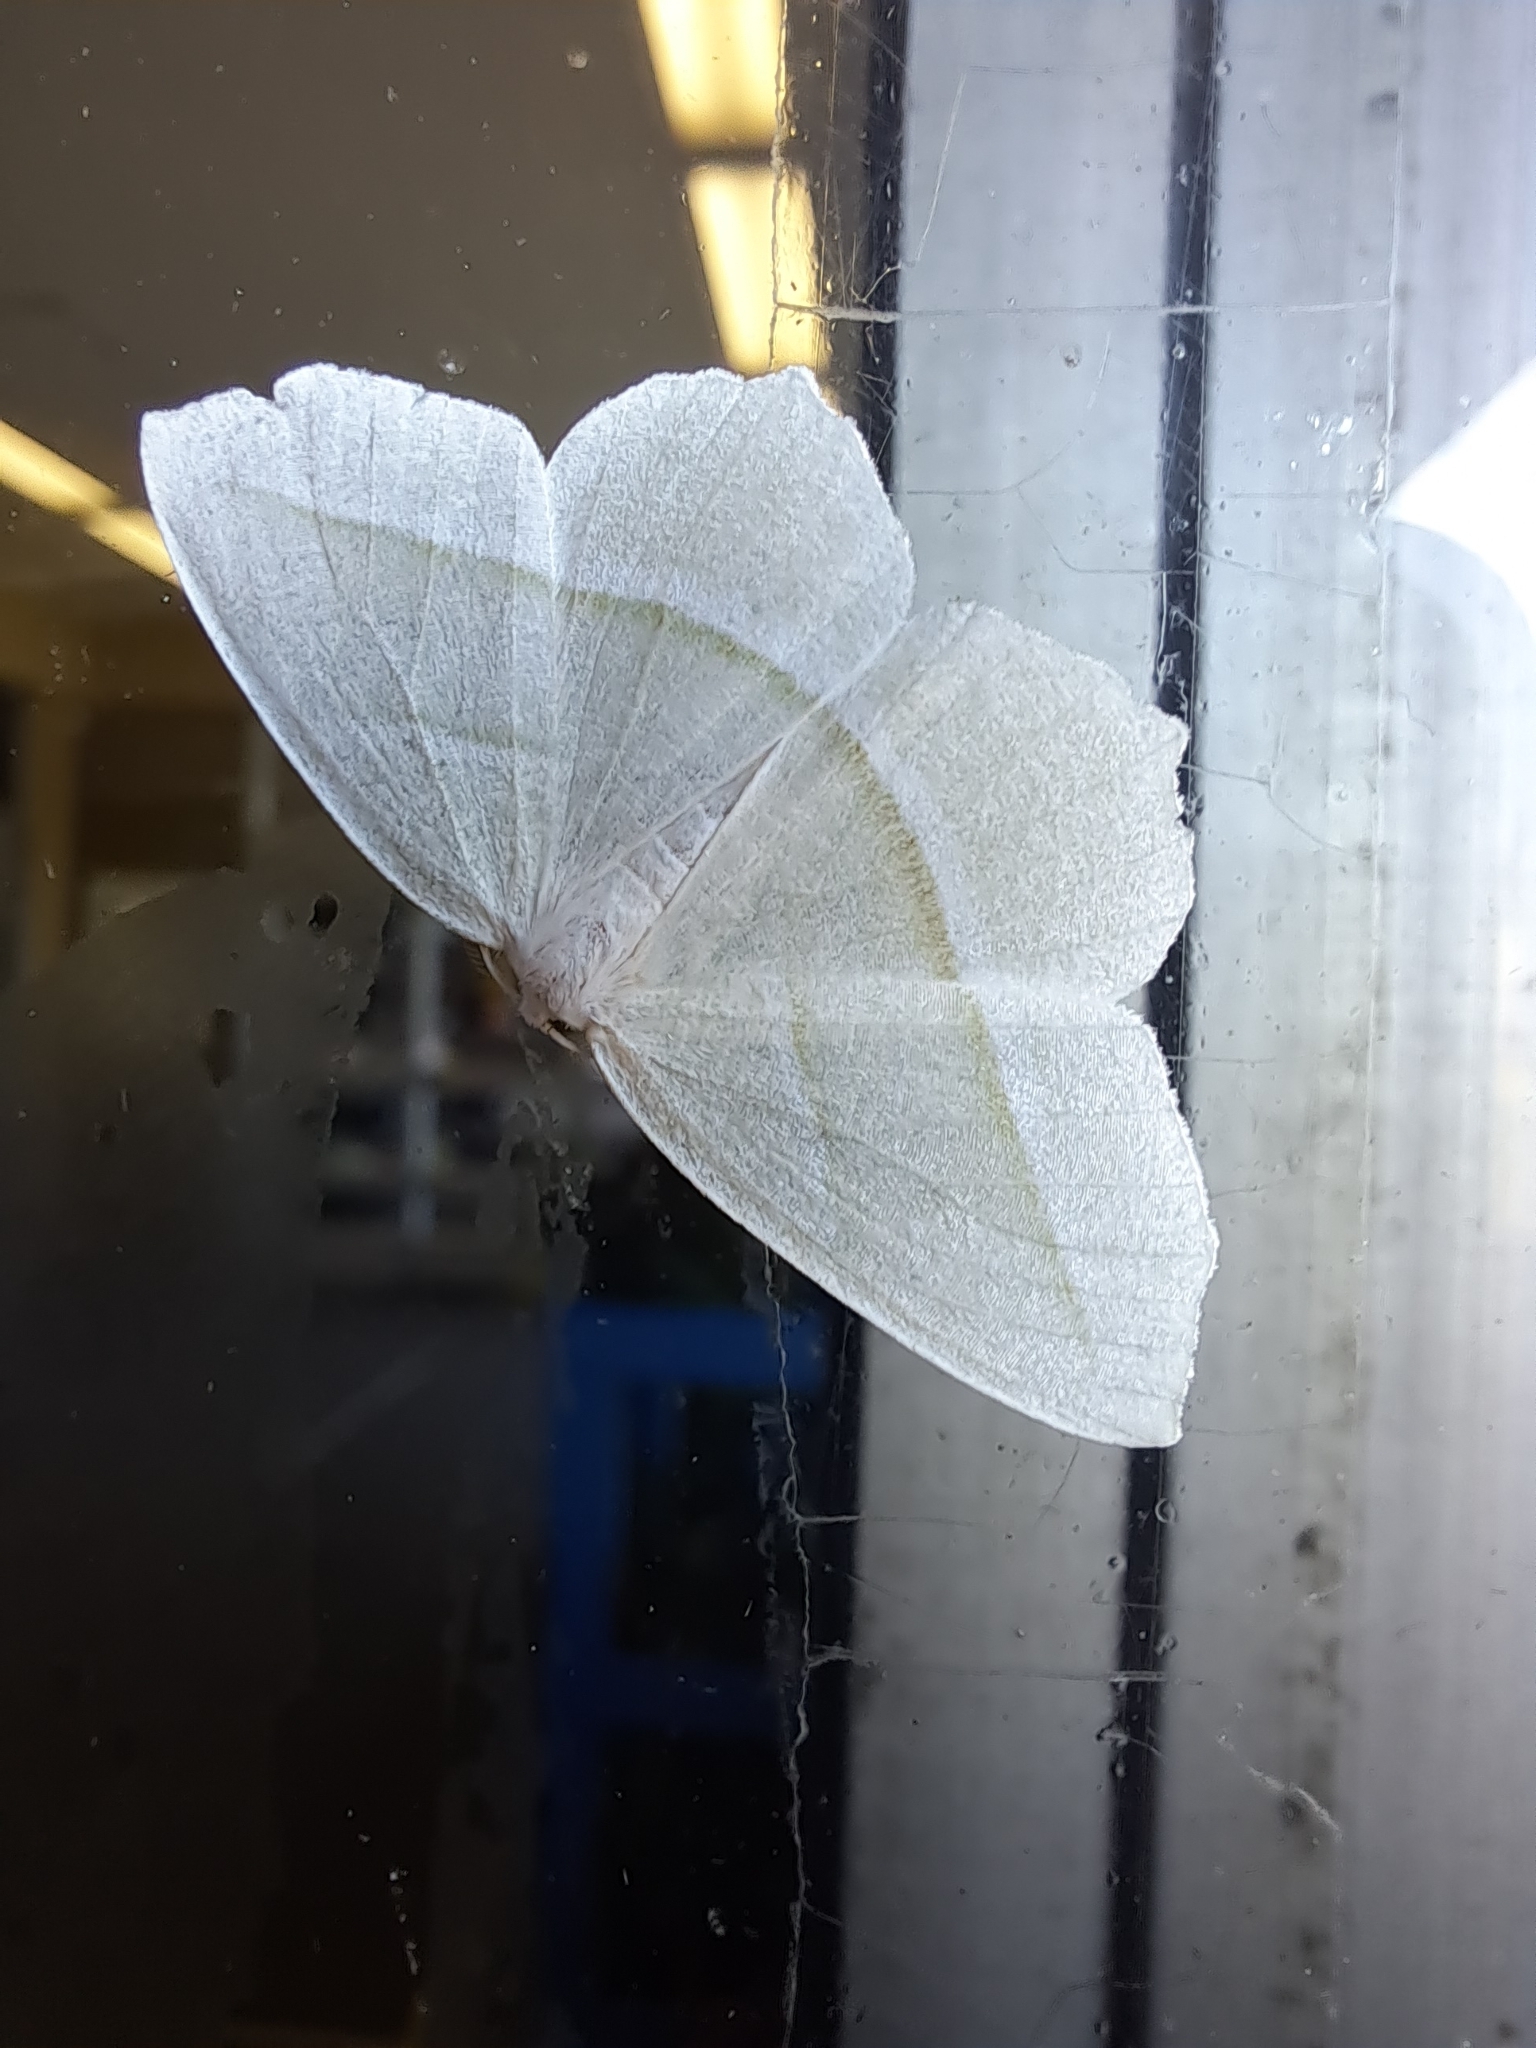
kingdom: Animalia
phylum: Arthropoda
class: Insecta
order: Lepidoptera
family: Geometridae
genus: Campaea
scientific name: Campaea perlata
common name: Fringed looper
